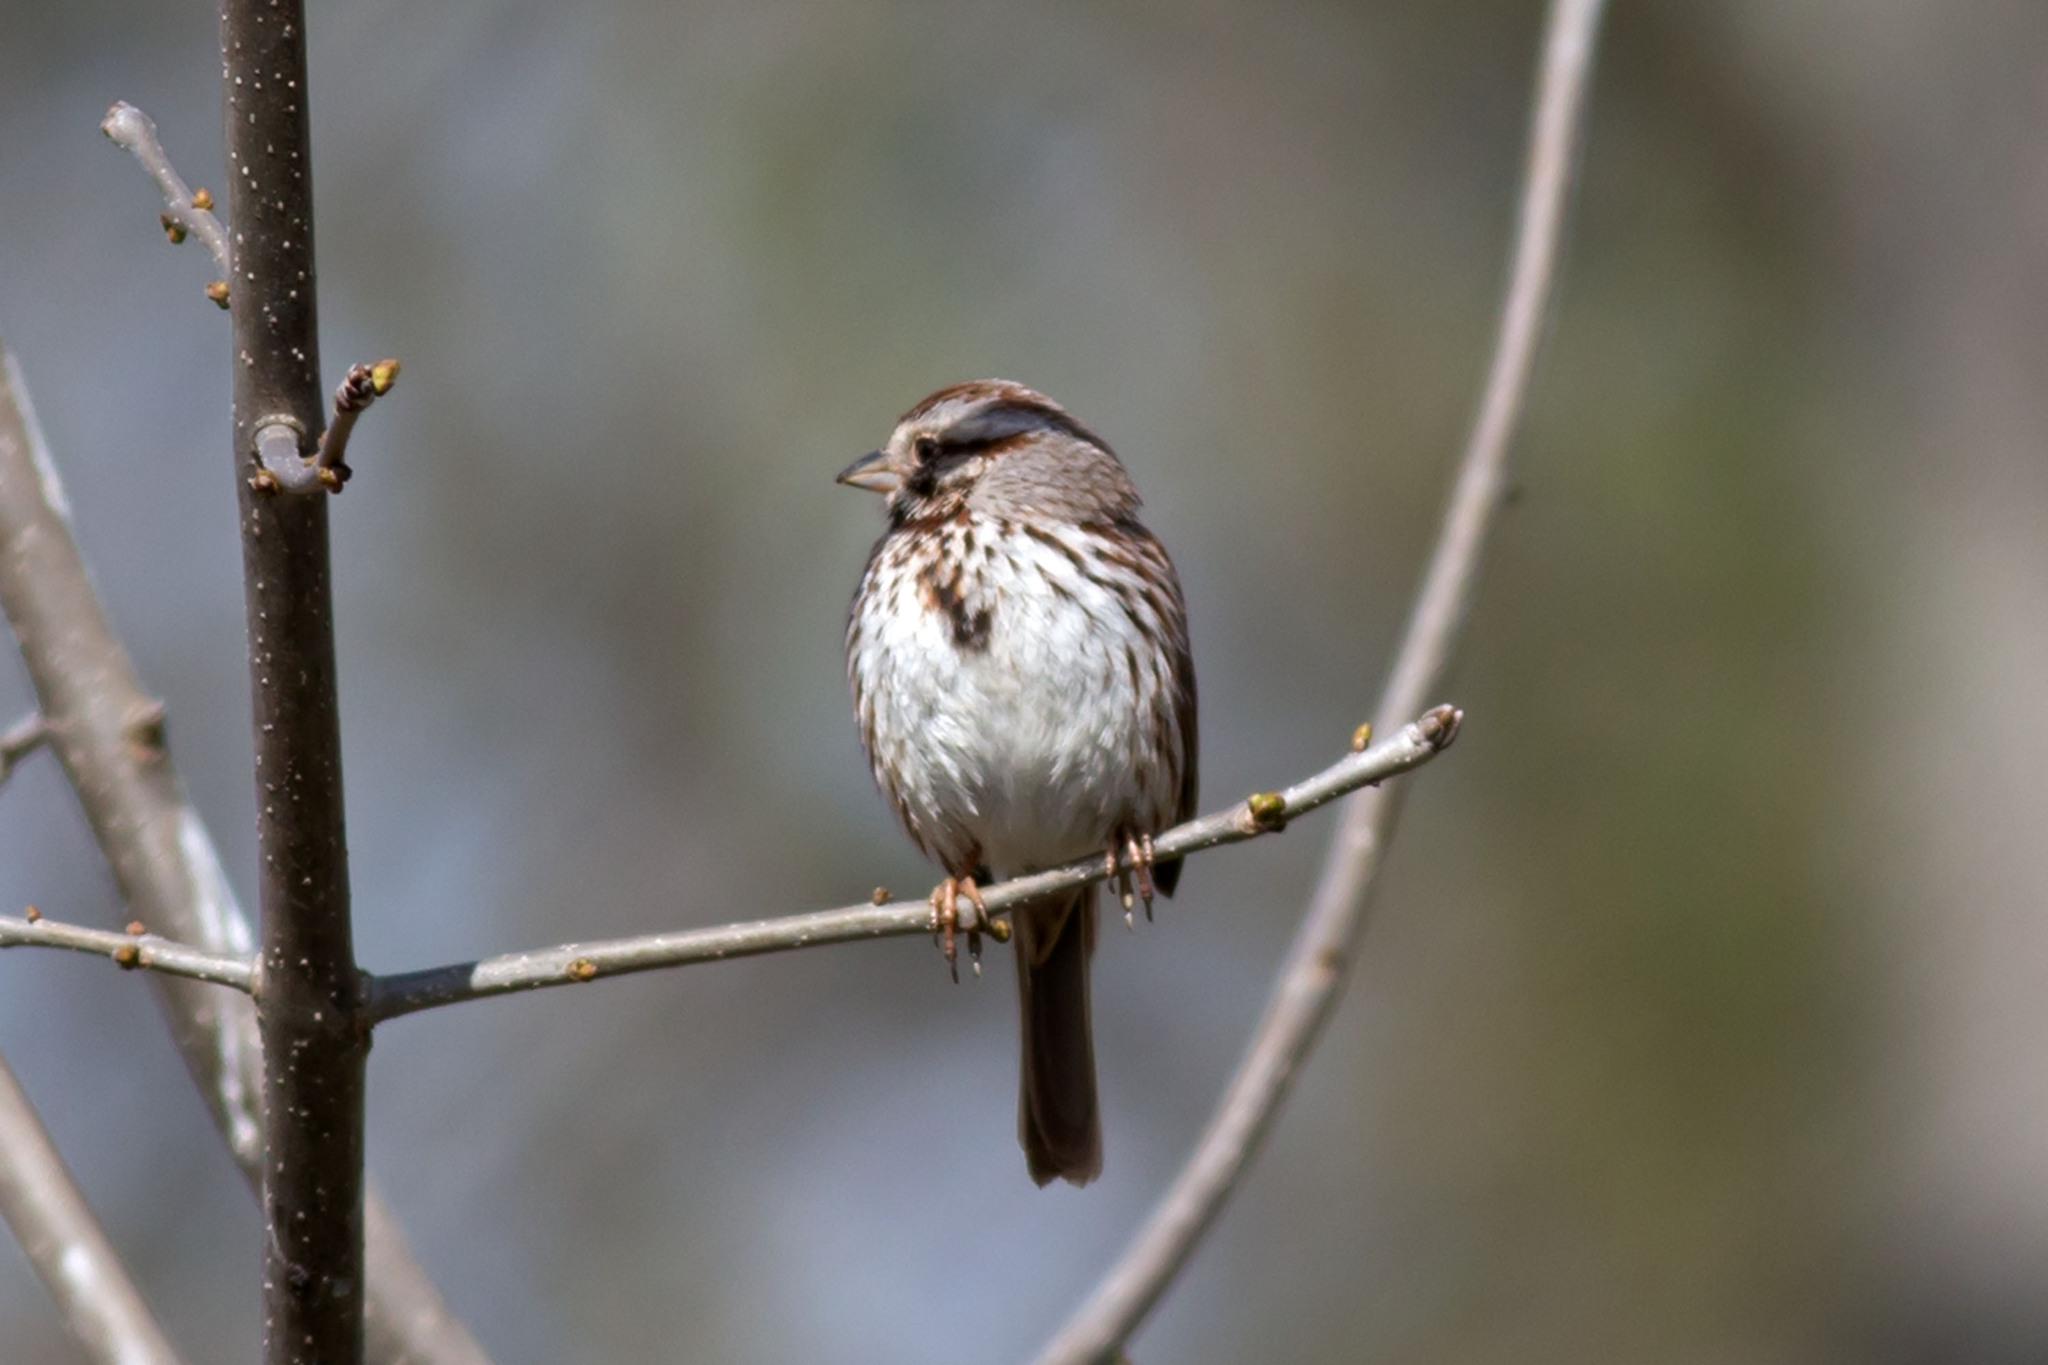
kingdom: Animalia
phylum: Chordata
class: Aves
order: Passeriformes
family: Passerellidae
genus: Melospiza
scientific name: Melospiza melodia
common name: Song sparrow
